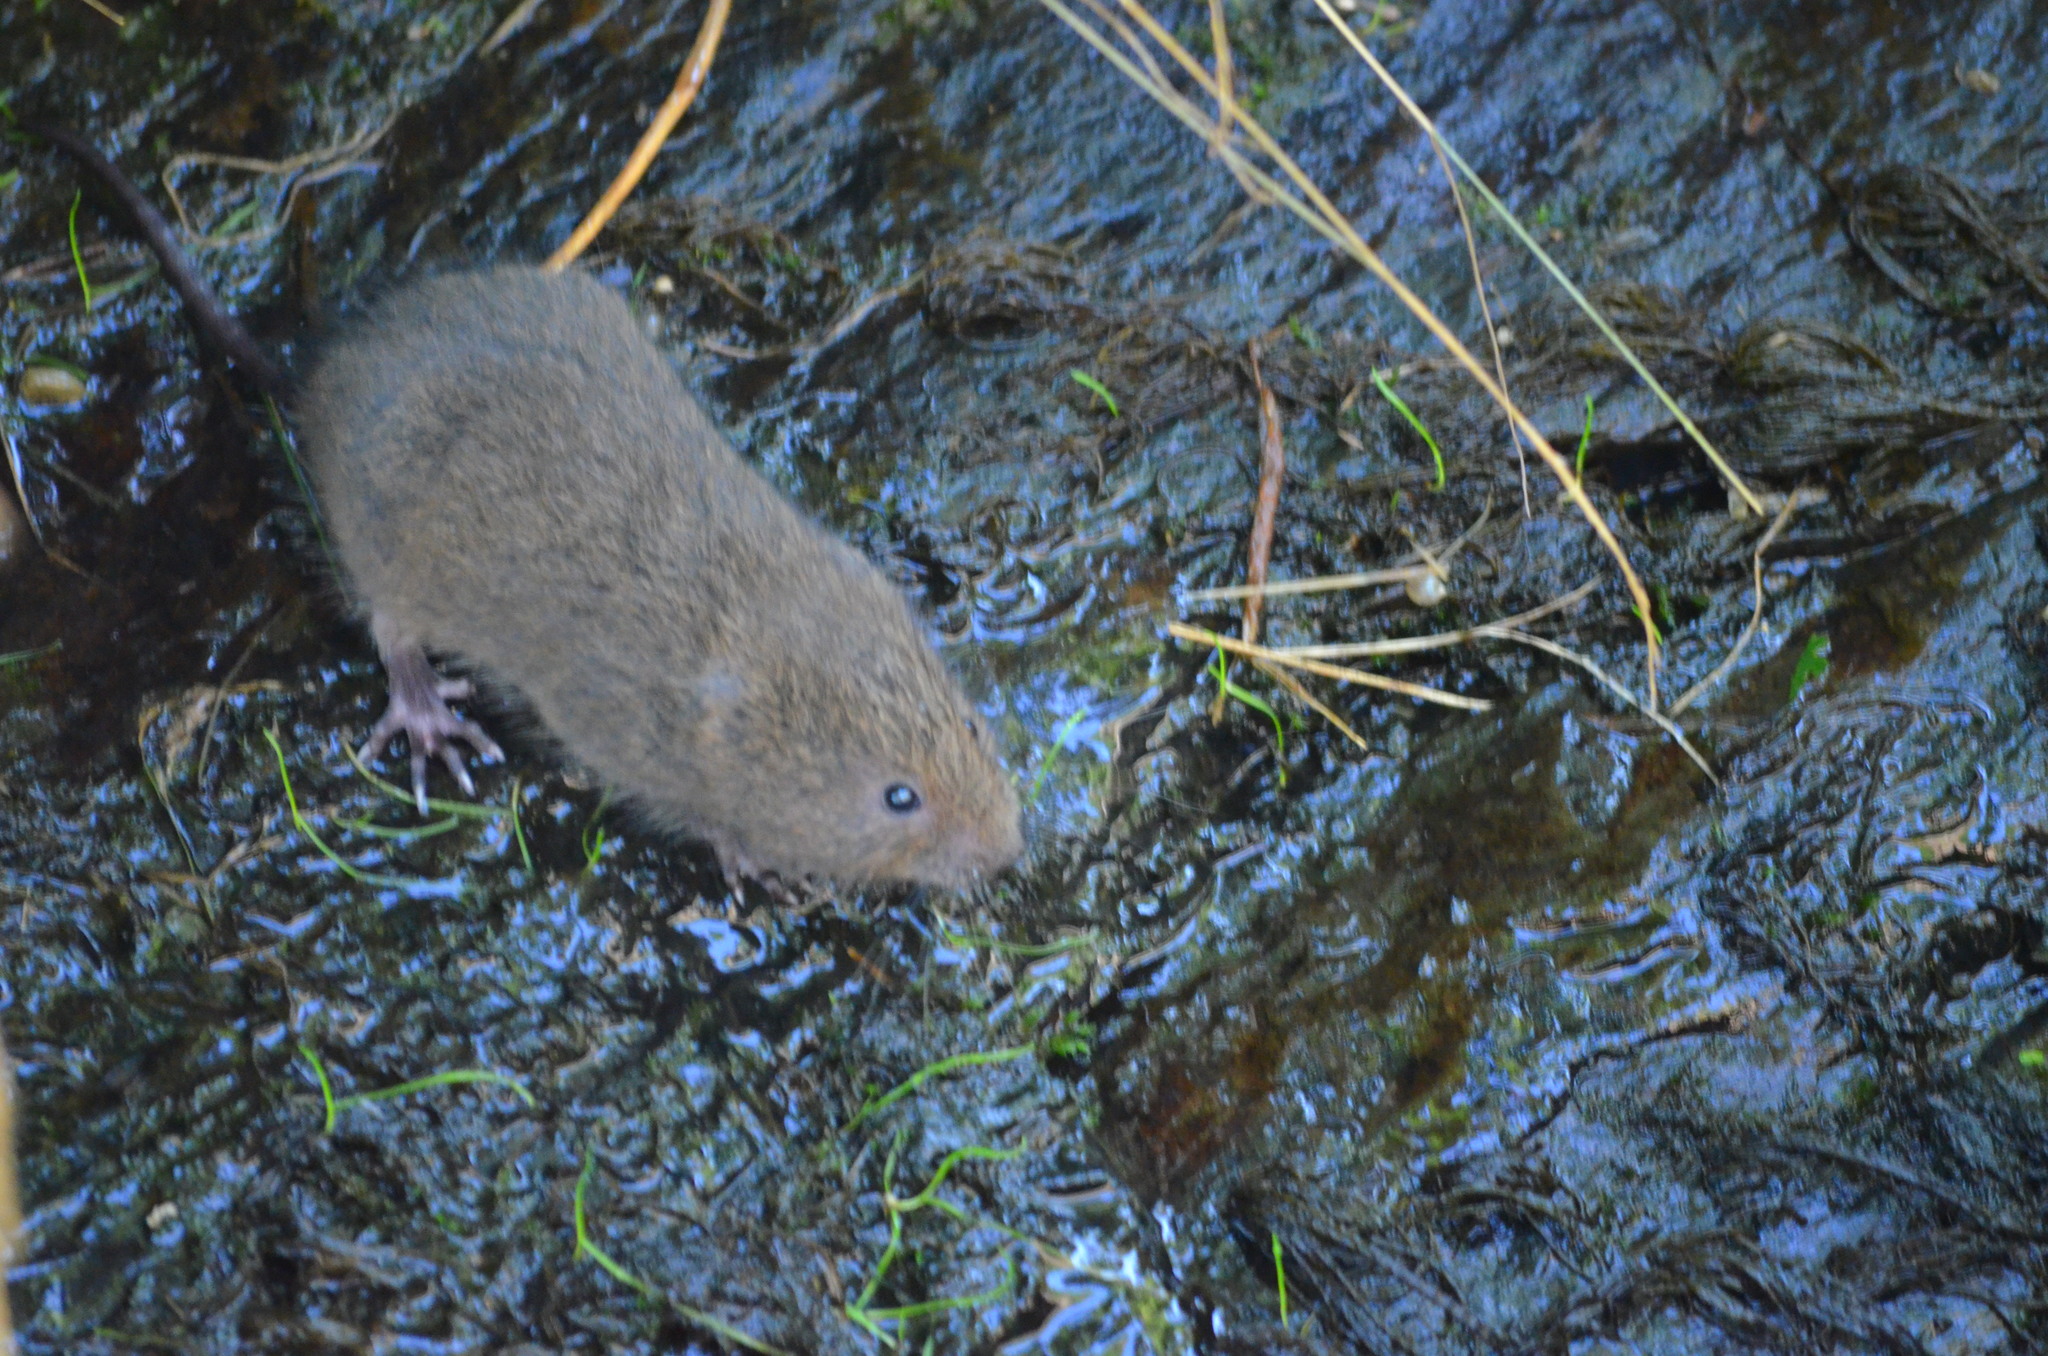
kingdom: Animalia
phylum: Chordata
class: Mammalia
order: Rodentia
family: Cricetidae
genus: Arvicola
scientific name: Arvicola sapidus
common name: Southwestern water vole
